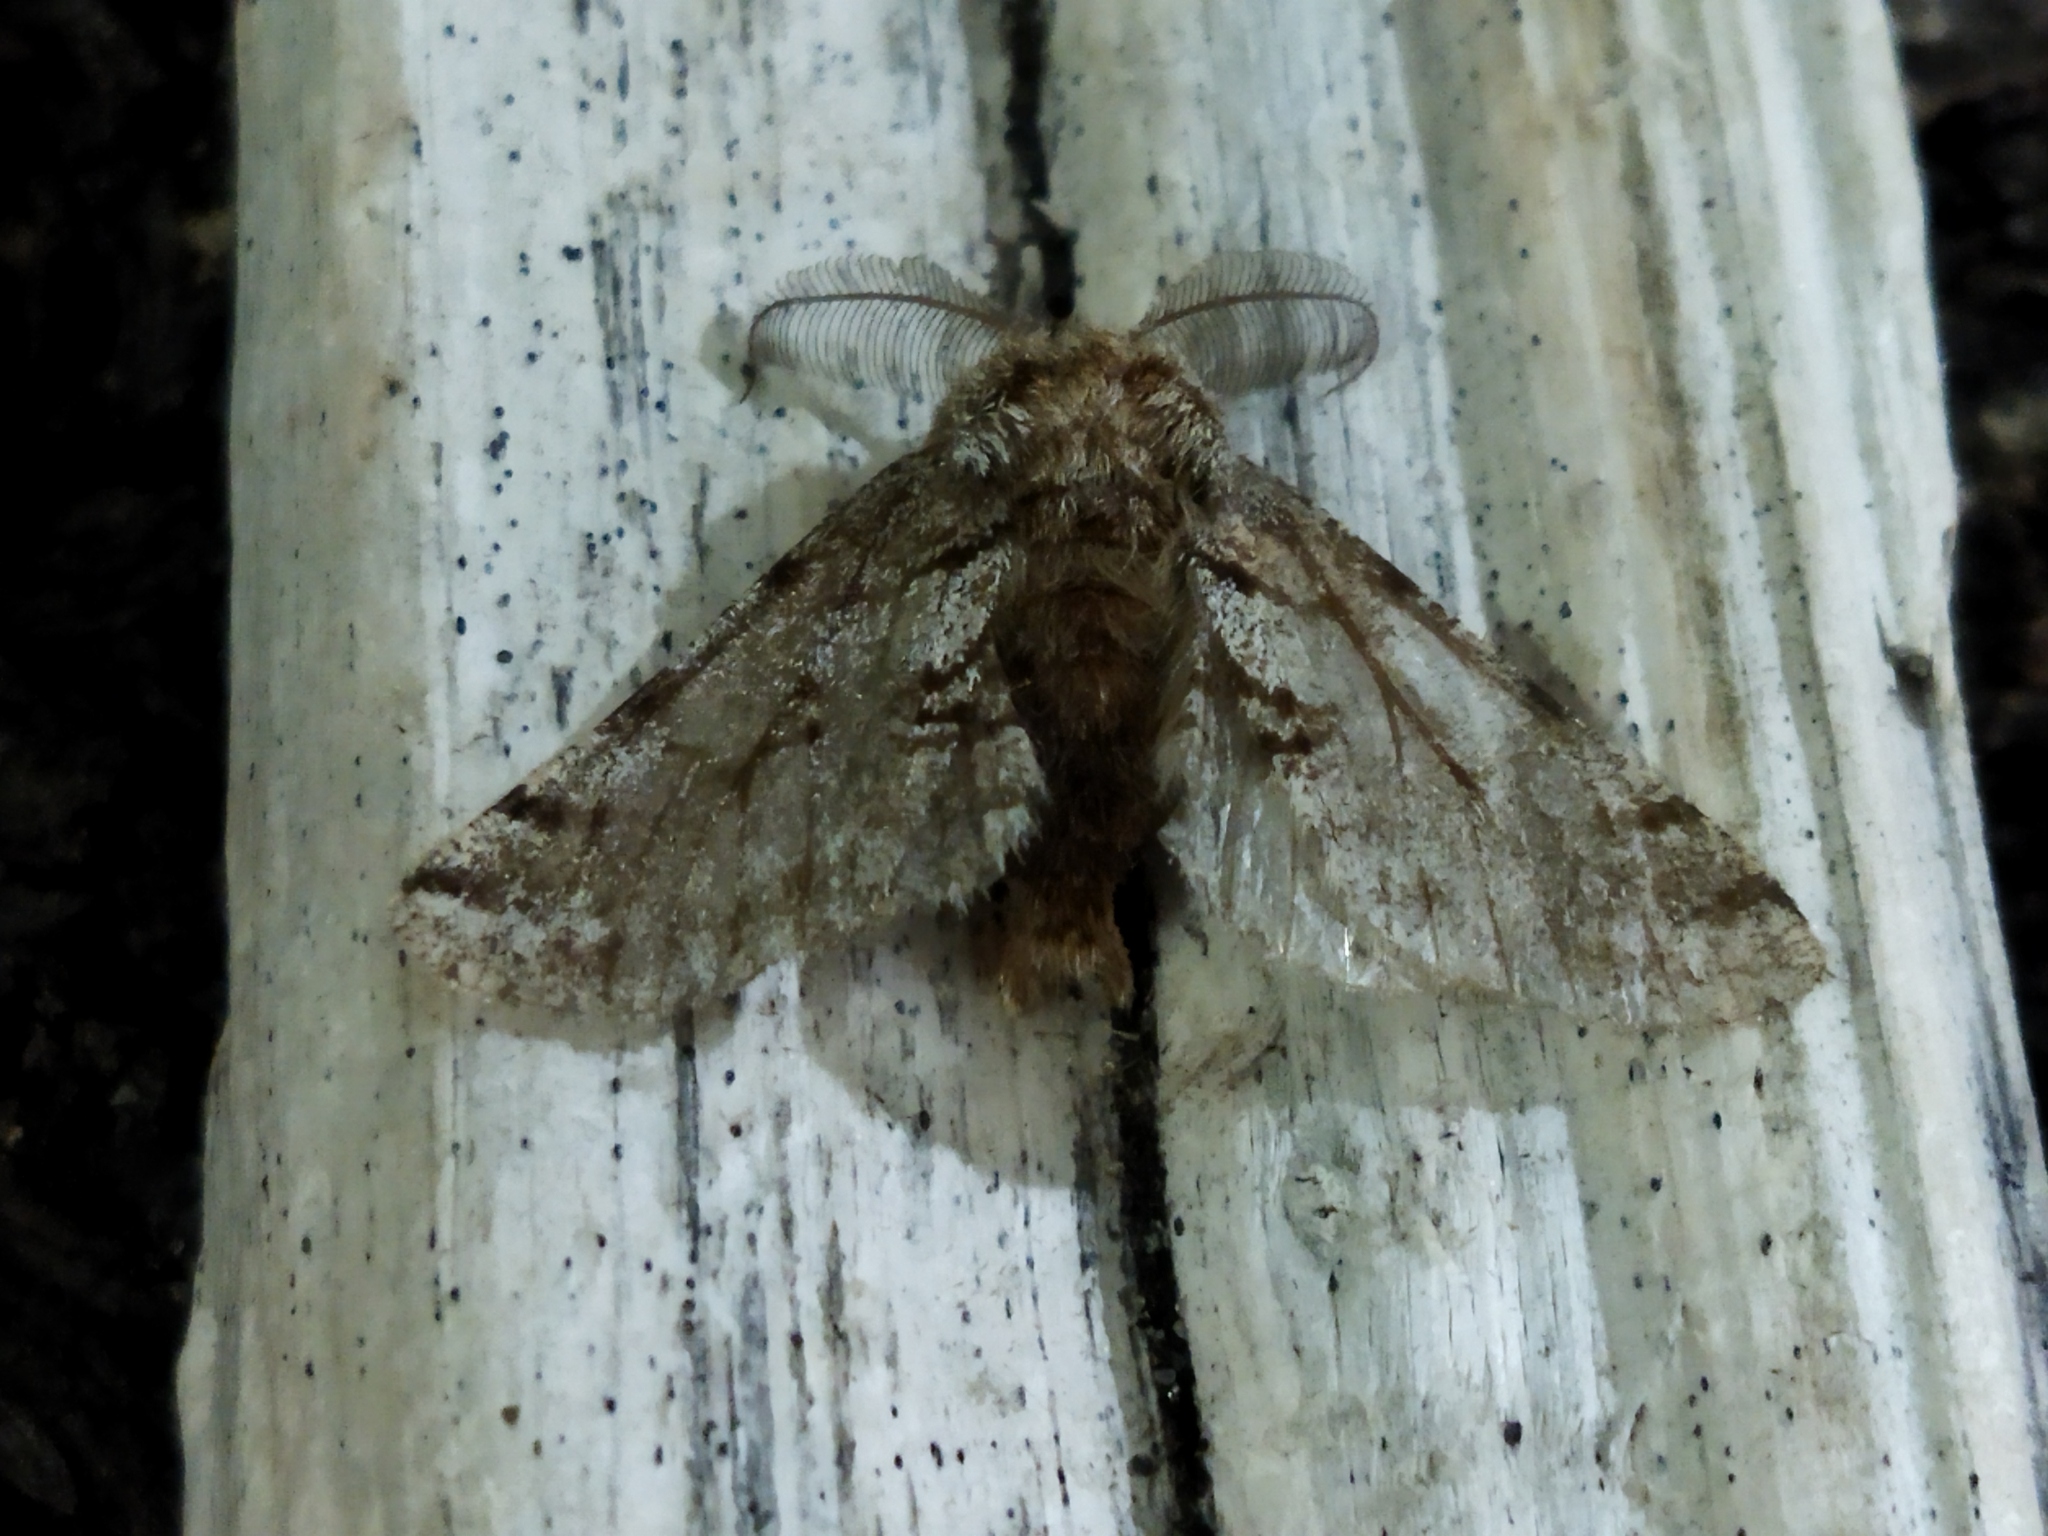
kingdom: Animalia
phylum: Arthropoda
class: Insecta
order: Lepidoptera
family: Geometridae
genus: Lycia
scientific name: Lycia hirtaria
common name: Brindled beauty
